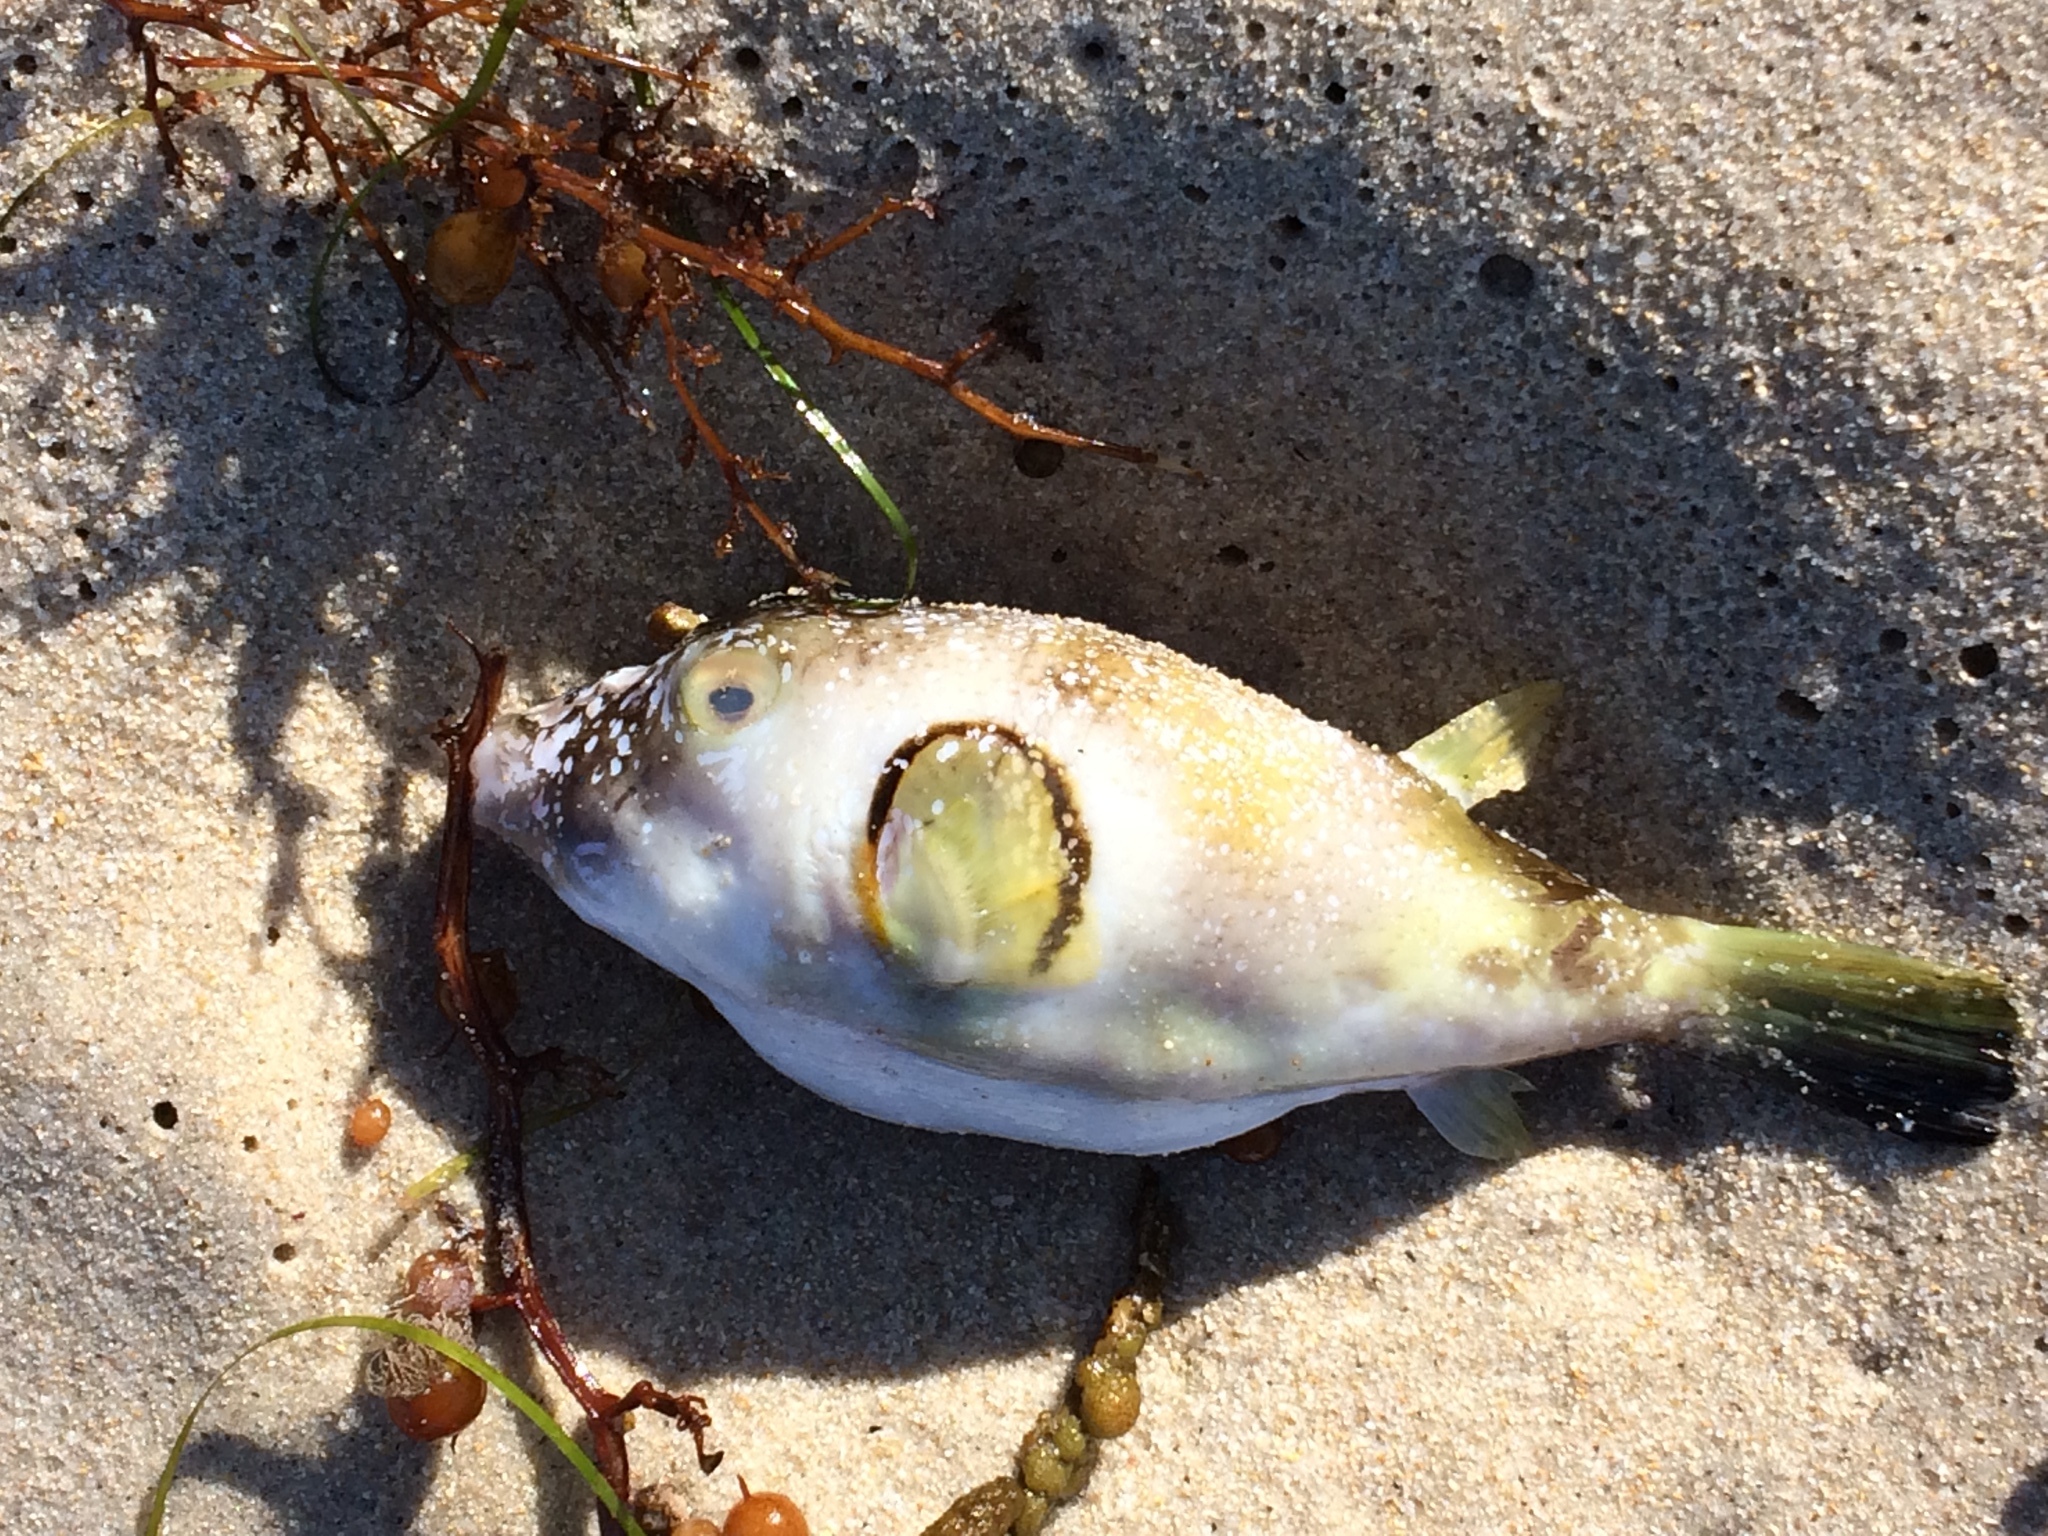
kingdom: Animalia
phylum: Chordata
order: Tetraodontiformes
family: Tetraodontidae
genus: Omegophora
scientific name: Omegophora armilla
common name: Ringed pufferfish
